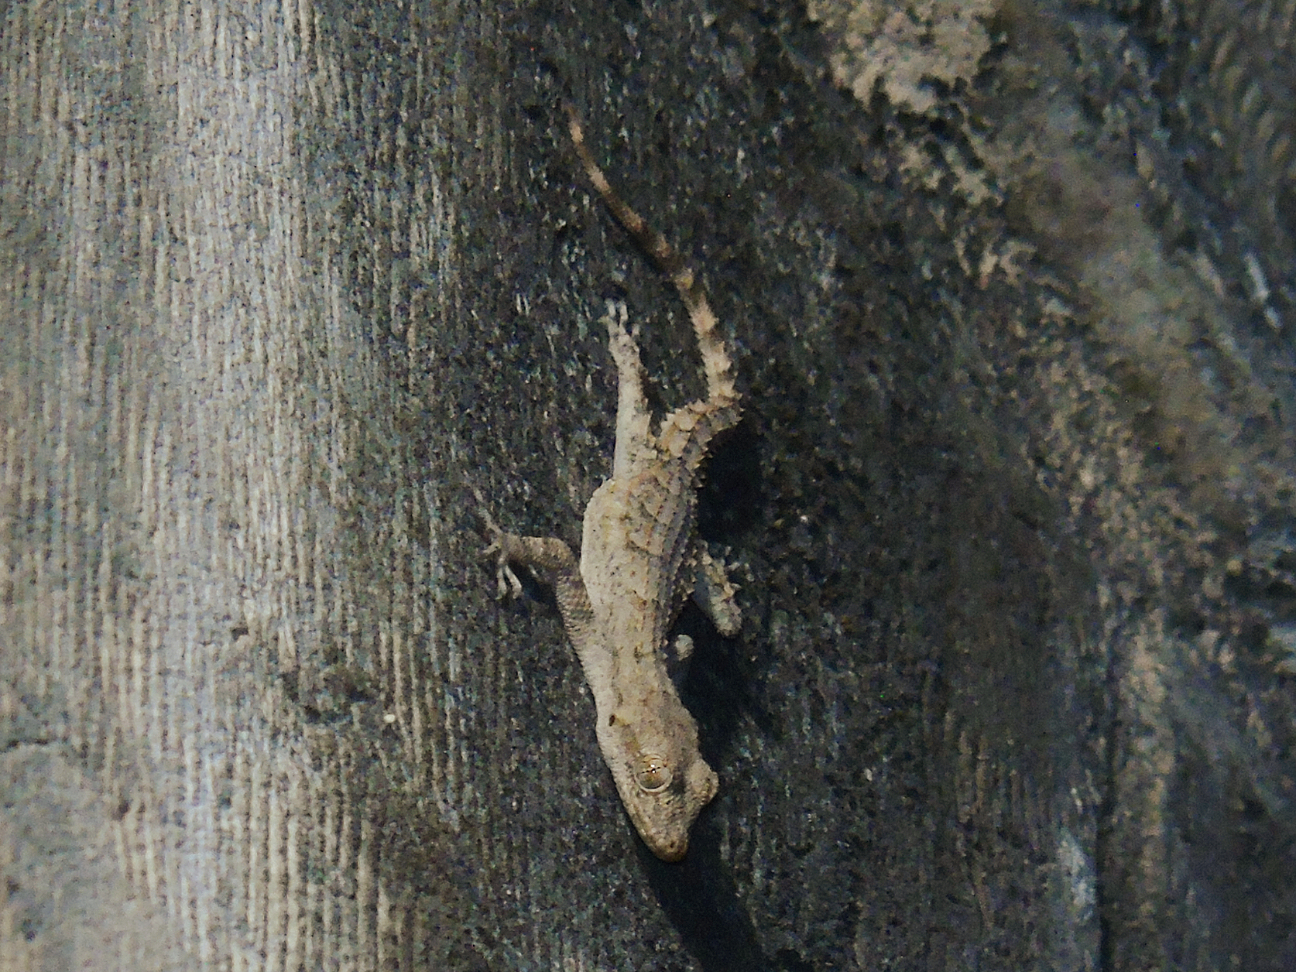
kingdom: Animalia
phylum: Chordata
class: Squamata
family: Gekkonidae
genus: Mediodactylus
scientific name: Mediodactylus orientalis
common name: Mediterranean thin-toed gecko
